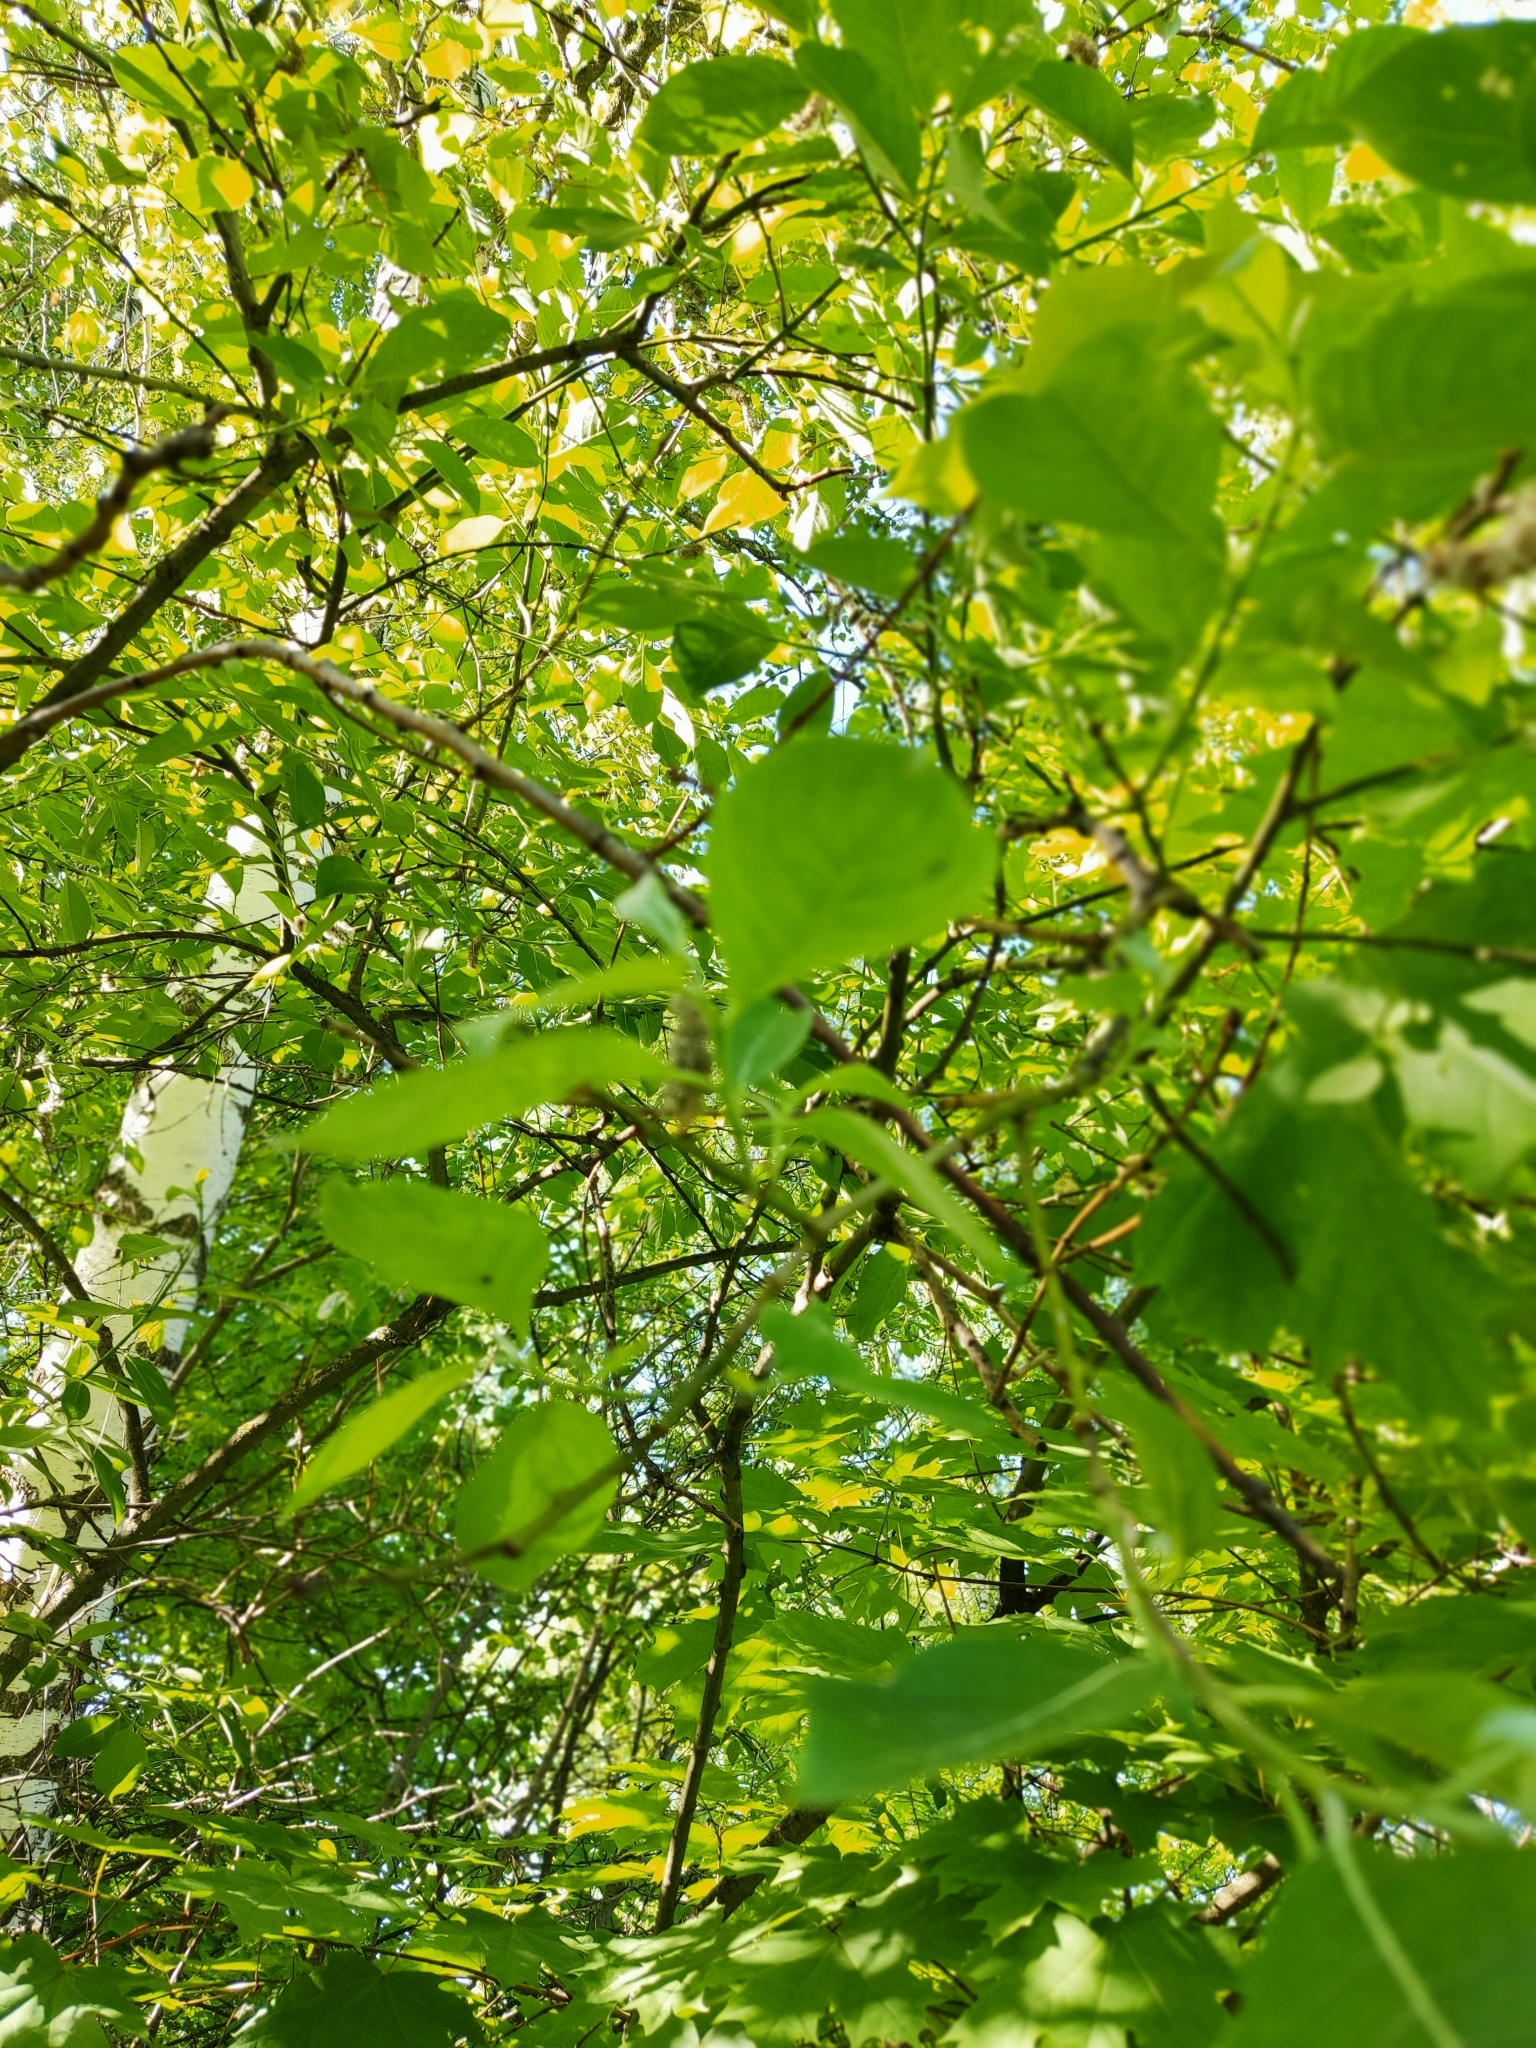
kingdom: Plantae
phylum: Tracheophyta
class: Magnoliopsida
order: Malpighiales
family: Salicaceae
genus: Salix
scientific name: Salix caprea
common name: Goat willow
